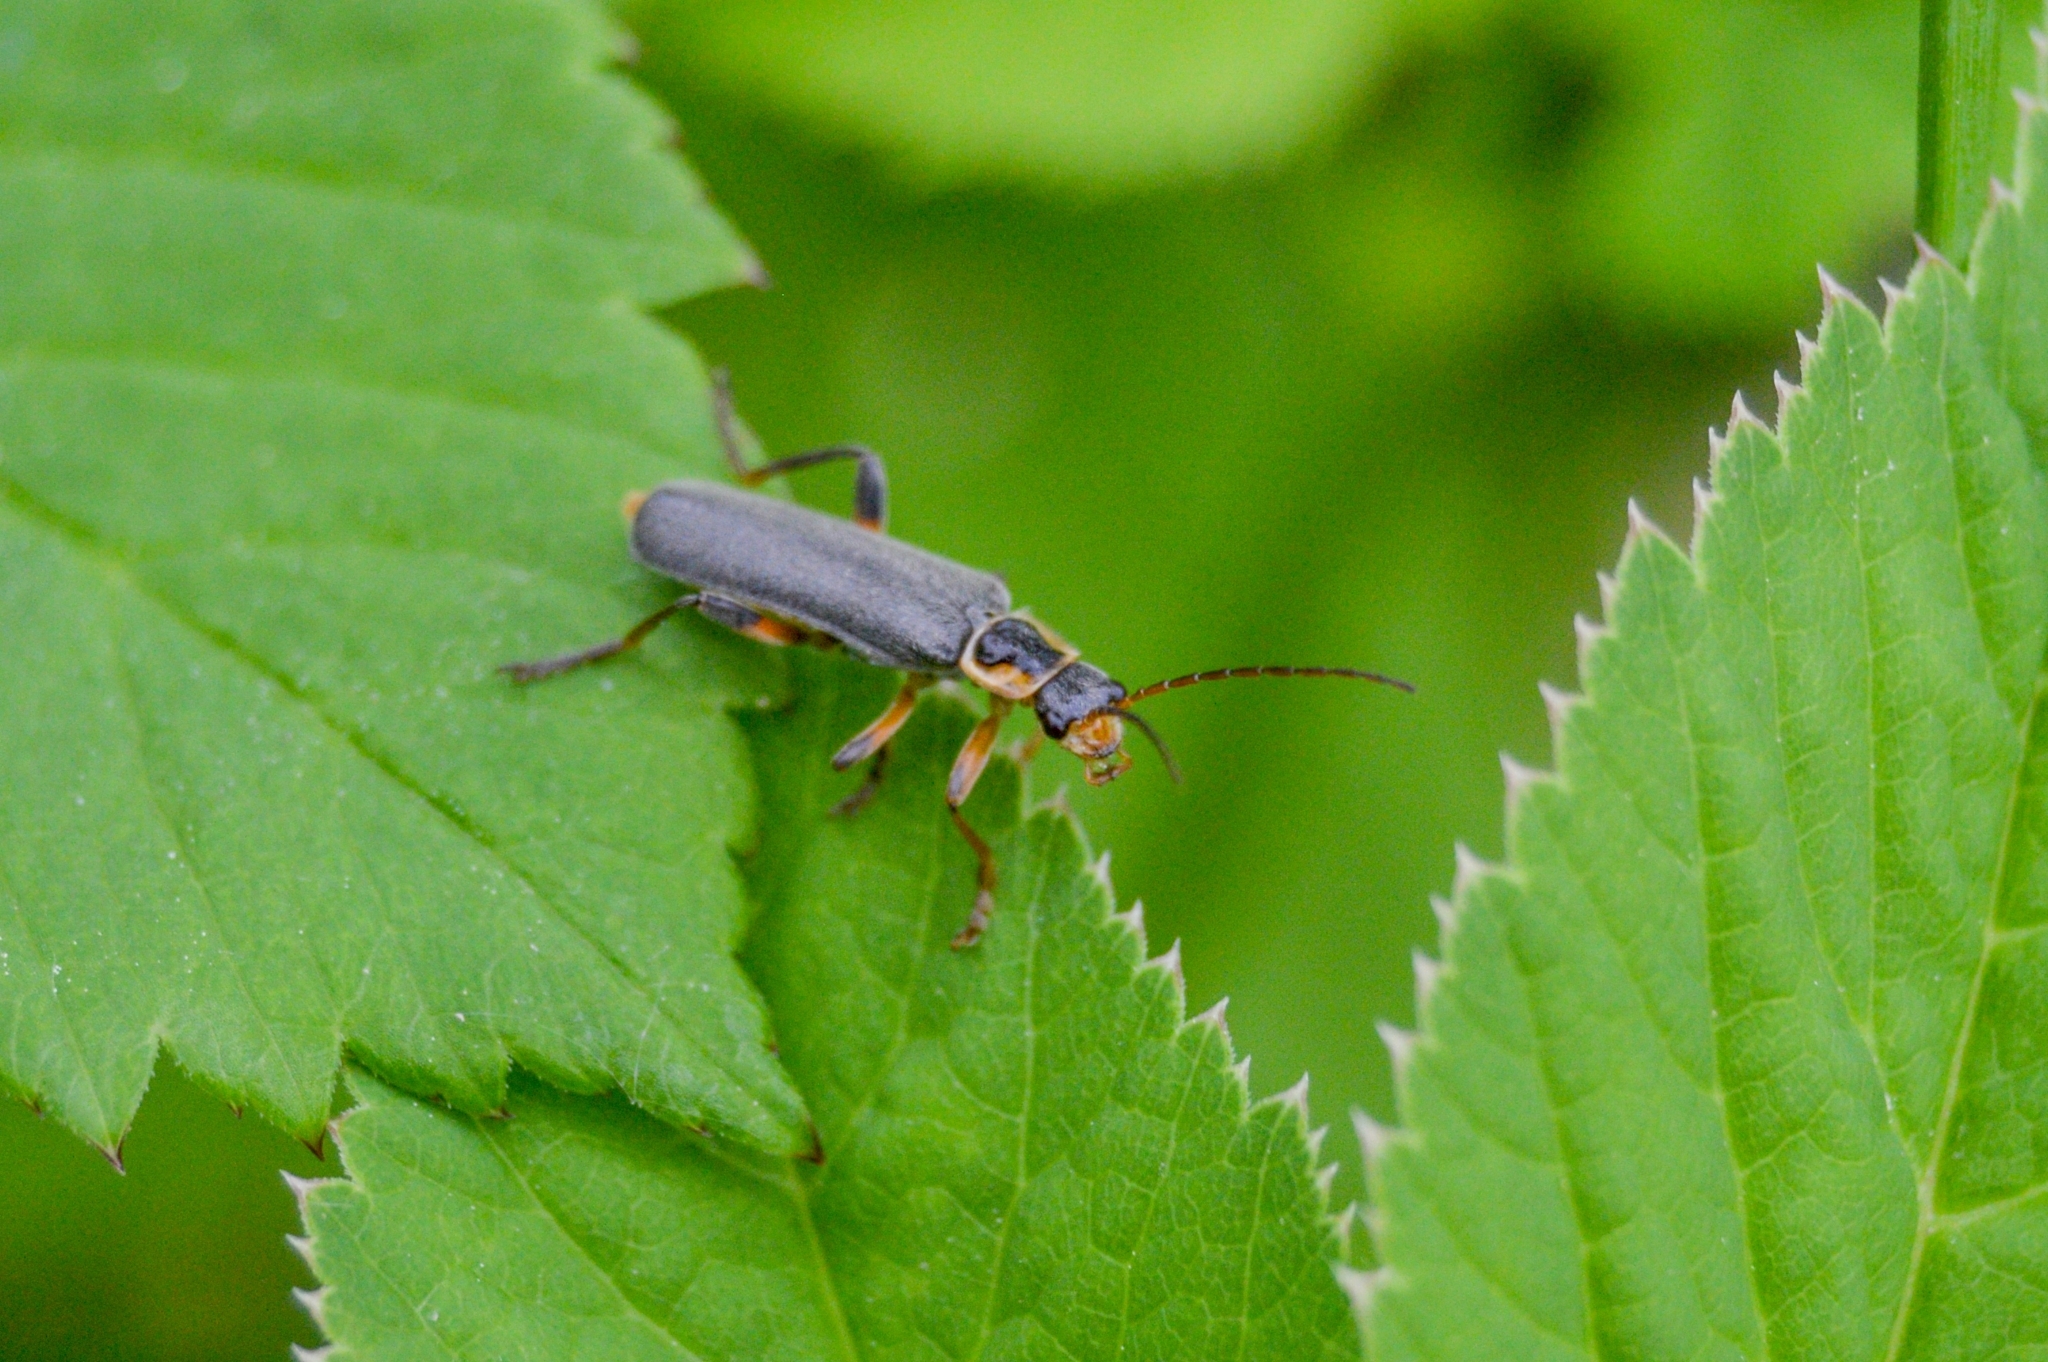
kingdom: Animalia
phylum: Arthropoda
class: Insecta
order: Coleoptera
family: Cantharidae
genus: Cantharis
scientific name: Cantharis nigricans
